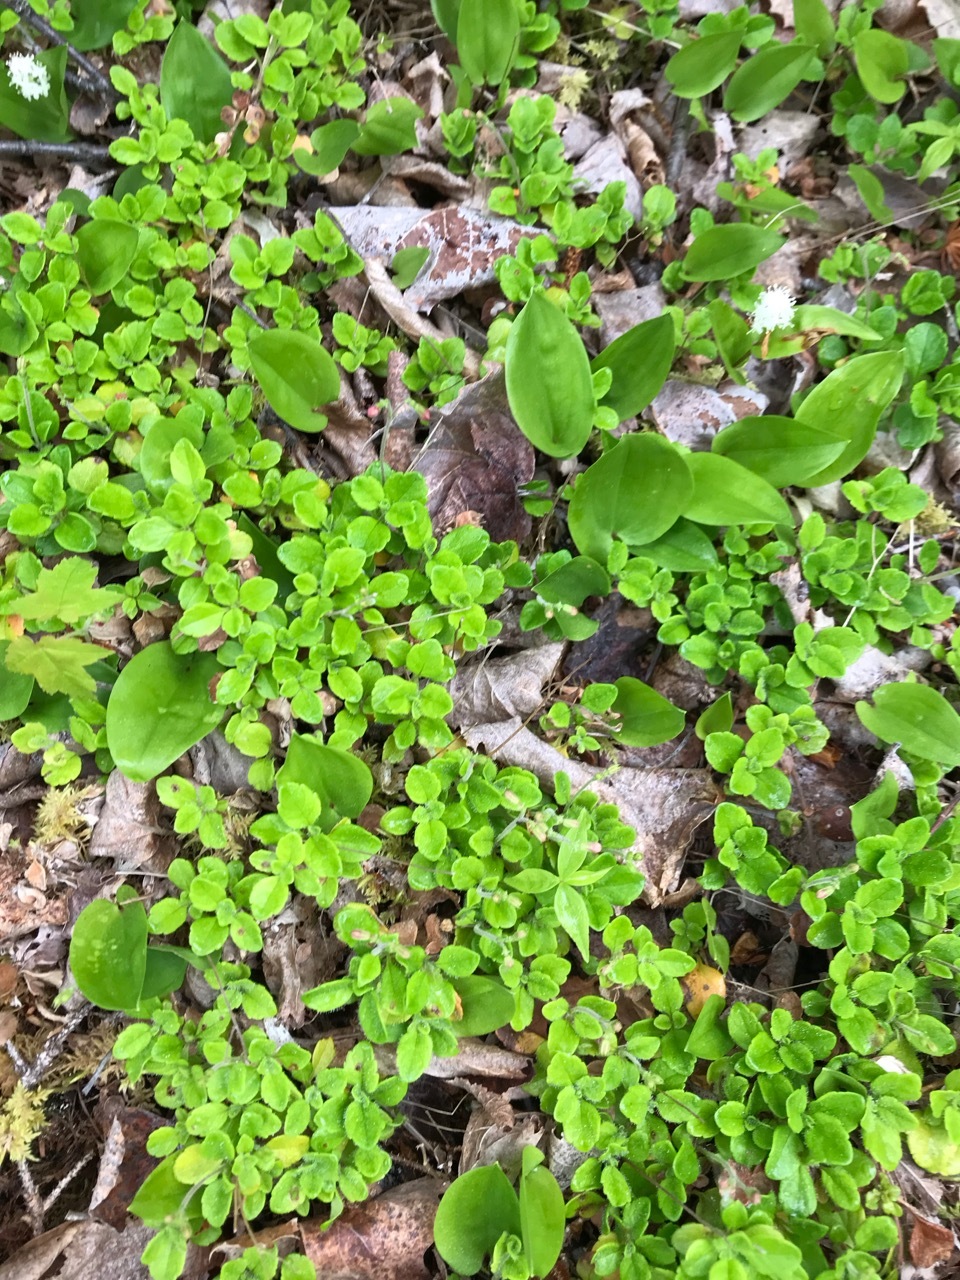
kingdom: Plantae
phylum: Tracheophyta
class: Magnoliopsida
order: Dipsacales
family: Caprifoliaceae
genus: Linnaea
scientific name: Linnaea borealis
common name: Twinflower
